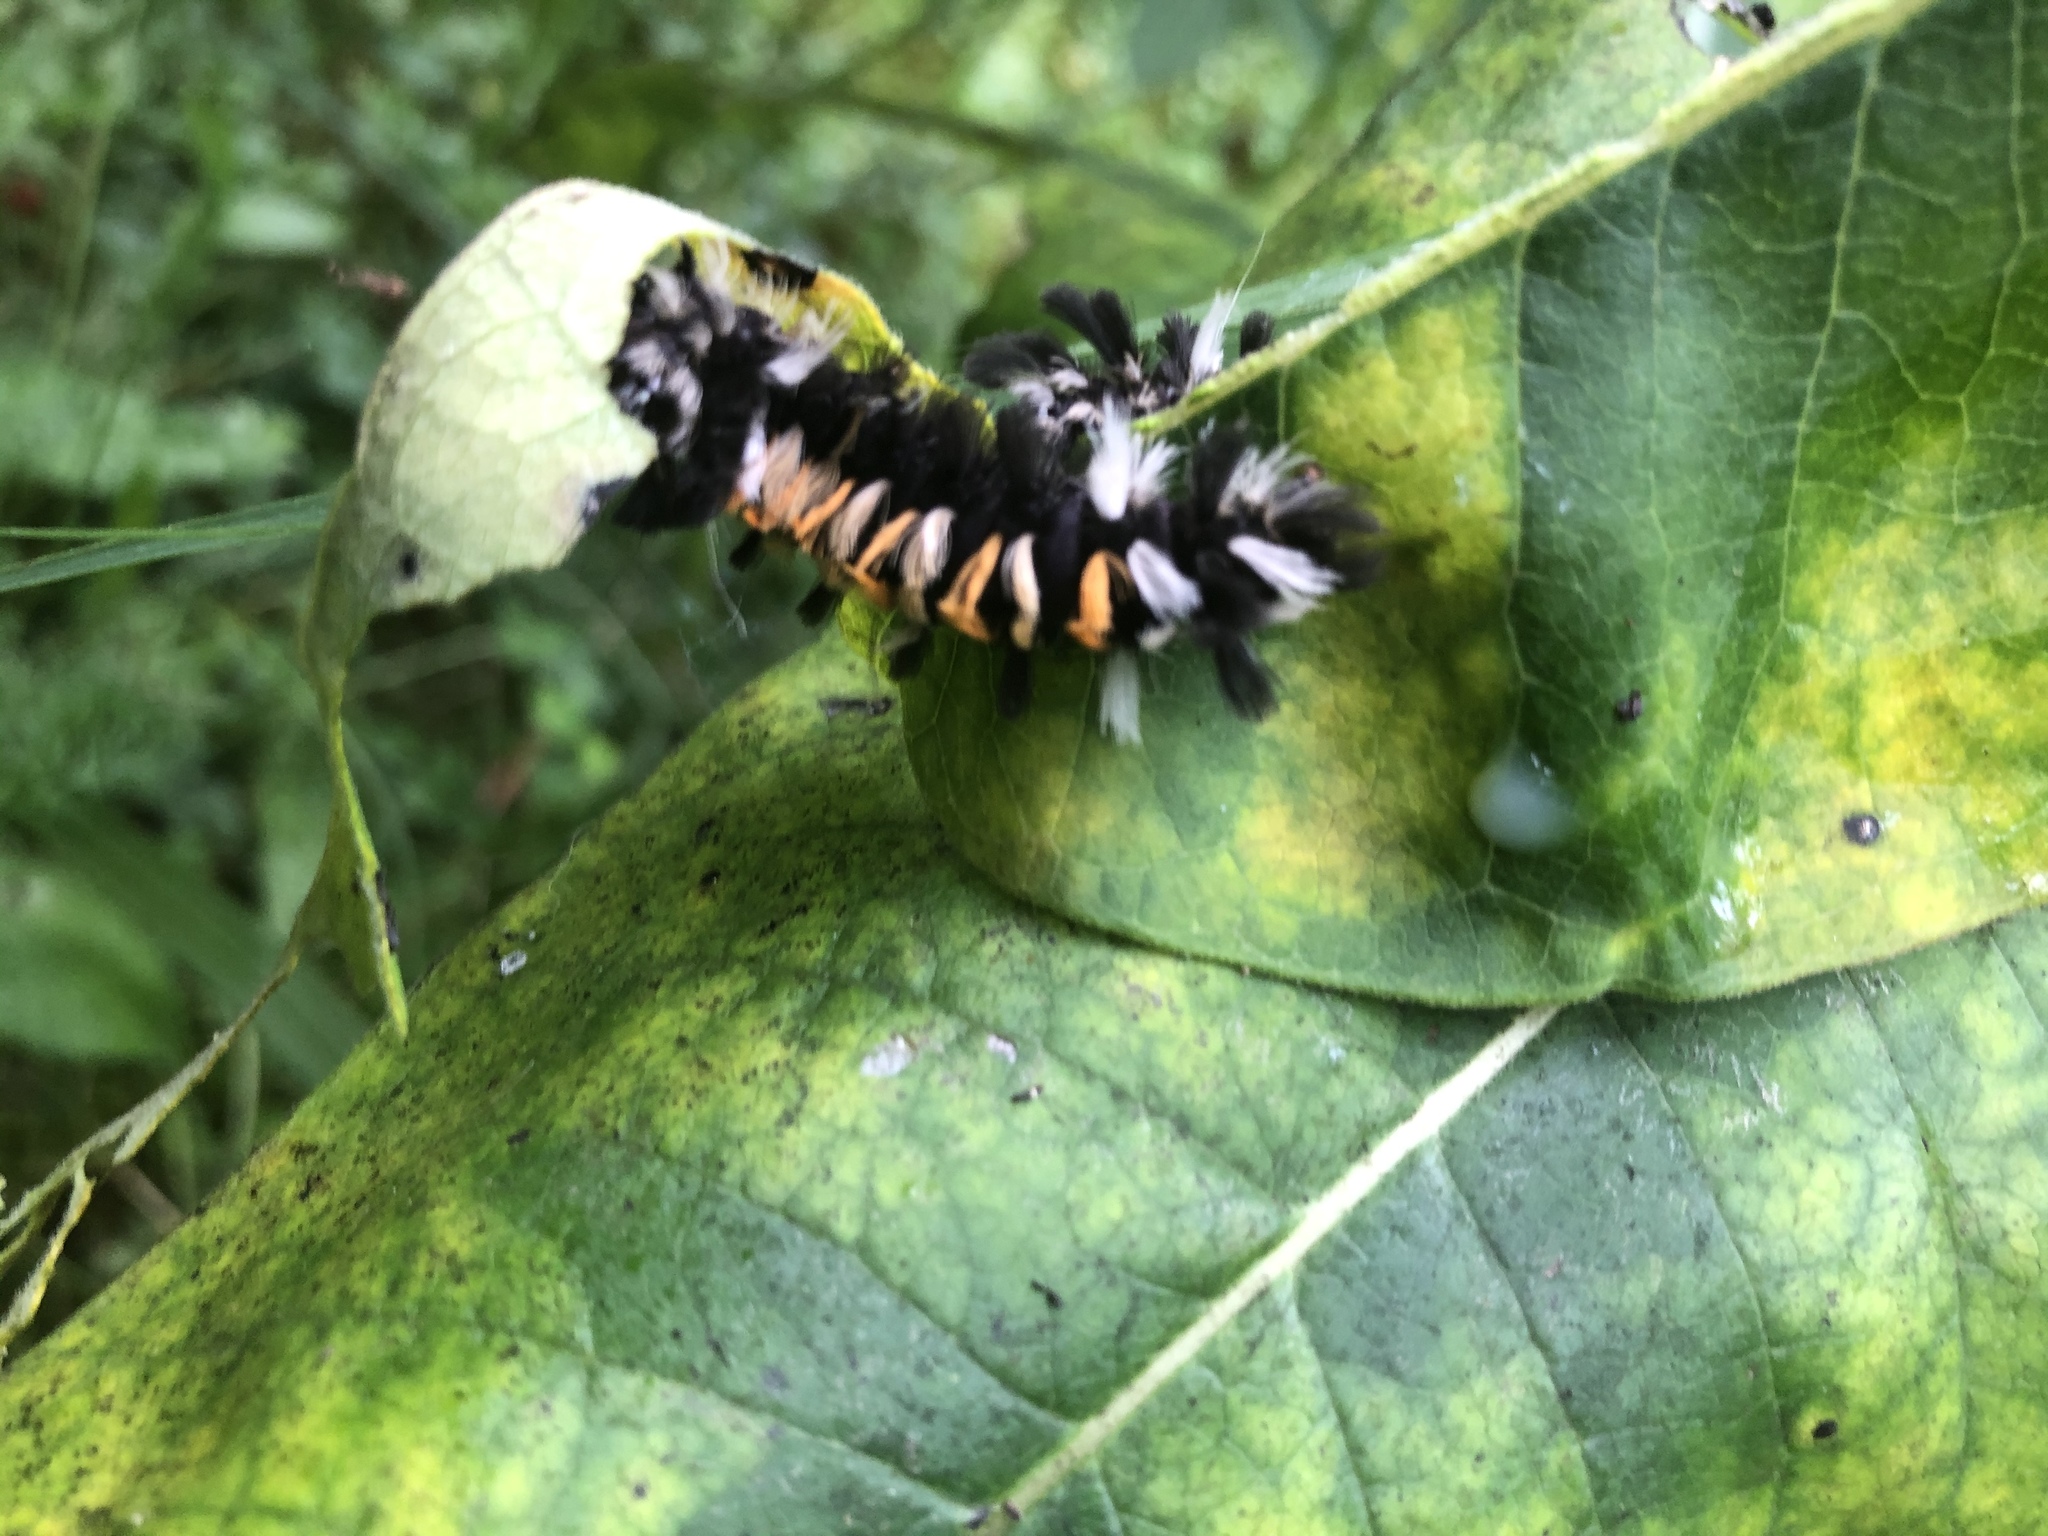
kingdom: Animalia
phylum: Arthropoda
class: Insecta
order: Lepidoptera
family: Erebidae
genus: Euchaetes
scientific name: Euchaetes egle
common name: Milkweed tussock moth
